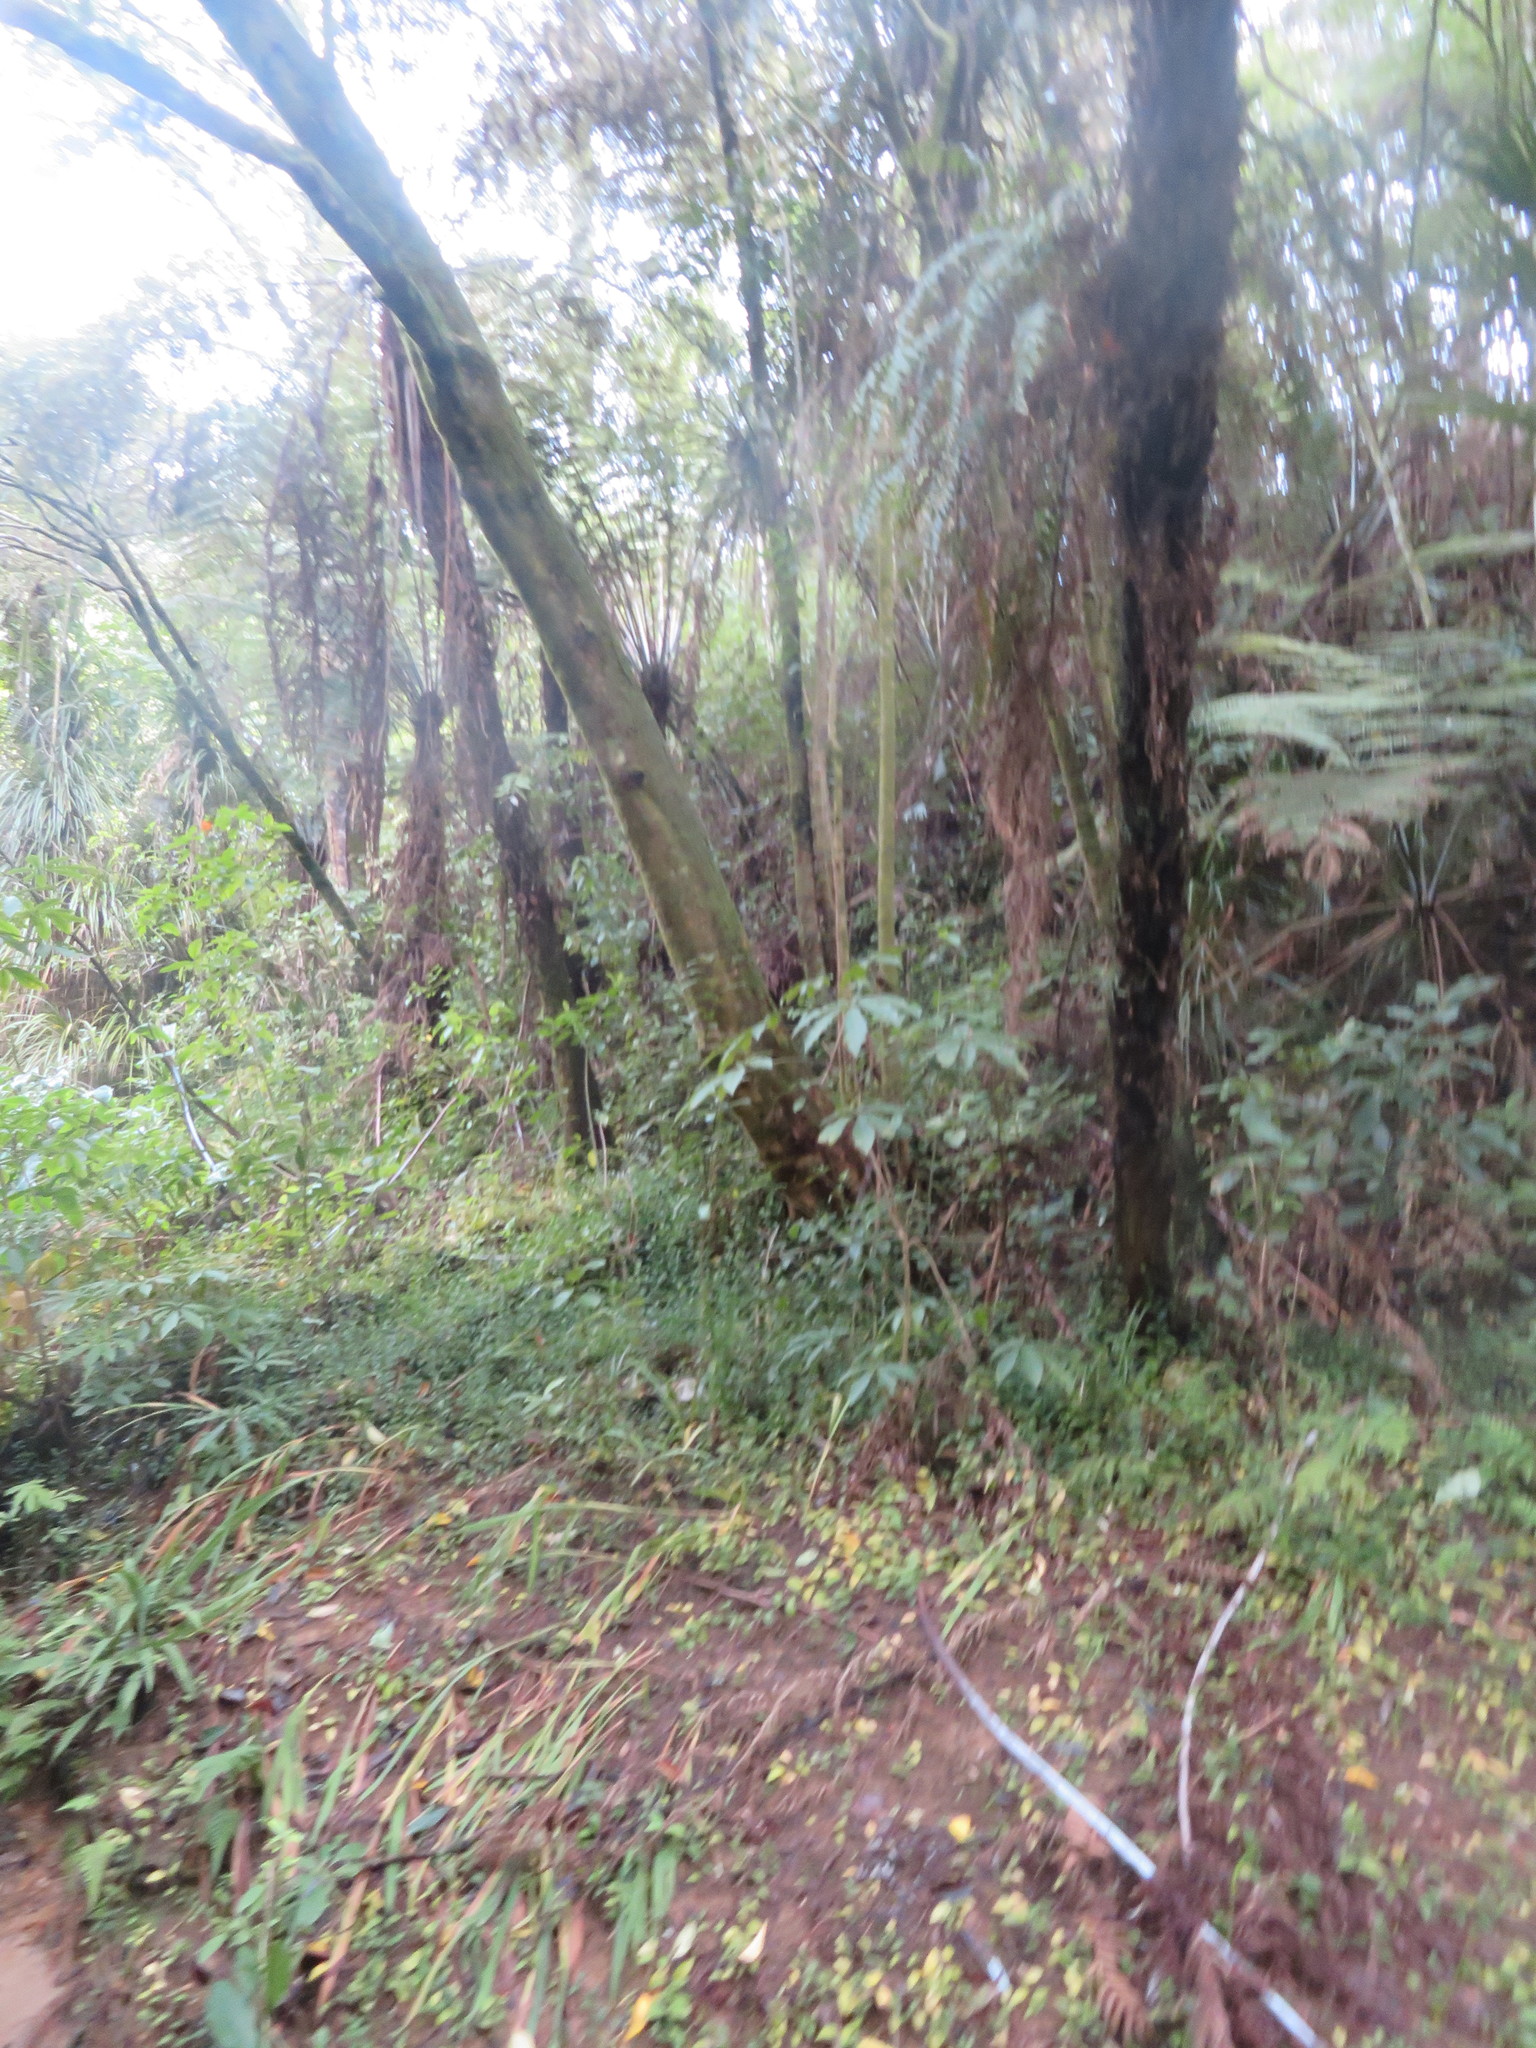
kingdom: Plantae
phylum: Tracheophyta
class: Magnoliopsida
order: Lamiales
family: Oleaceae
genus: Ligustrum
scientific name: Ligustrum lucidum
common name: Glossy privet
